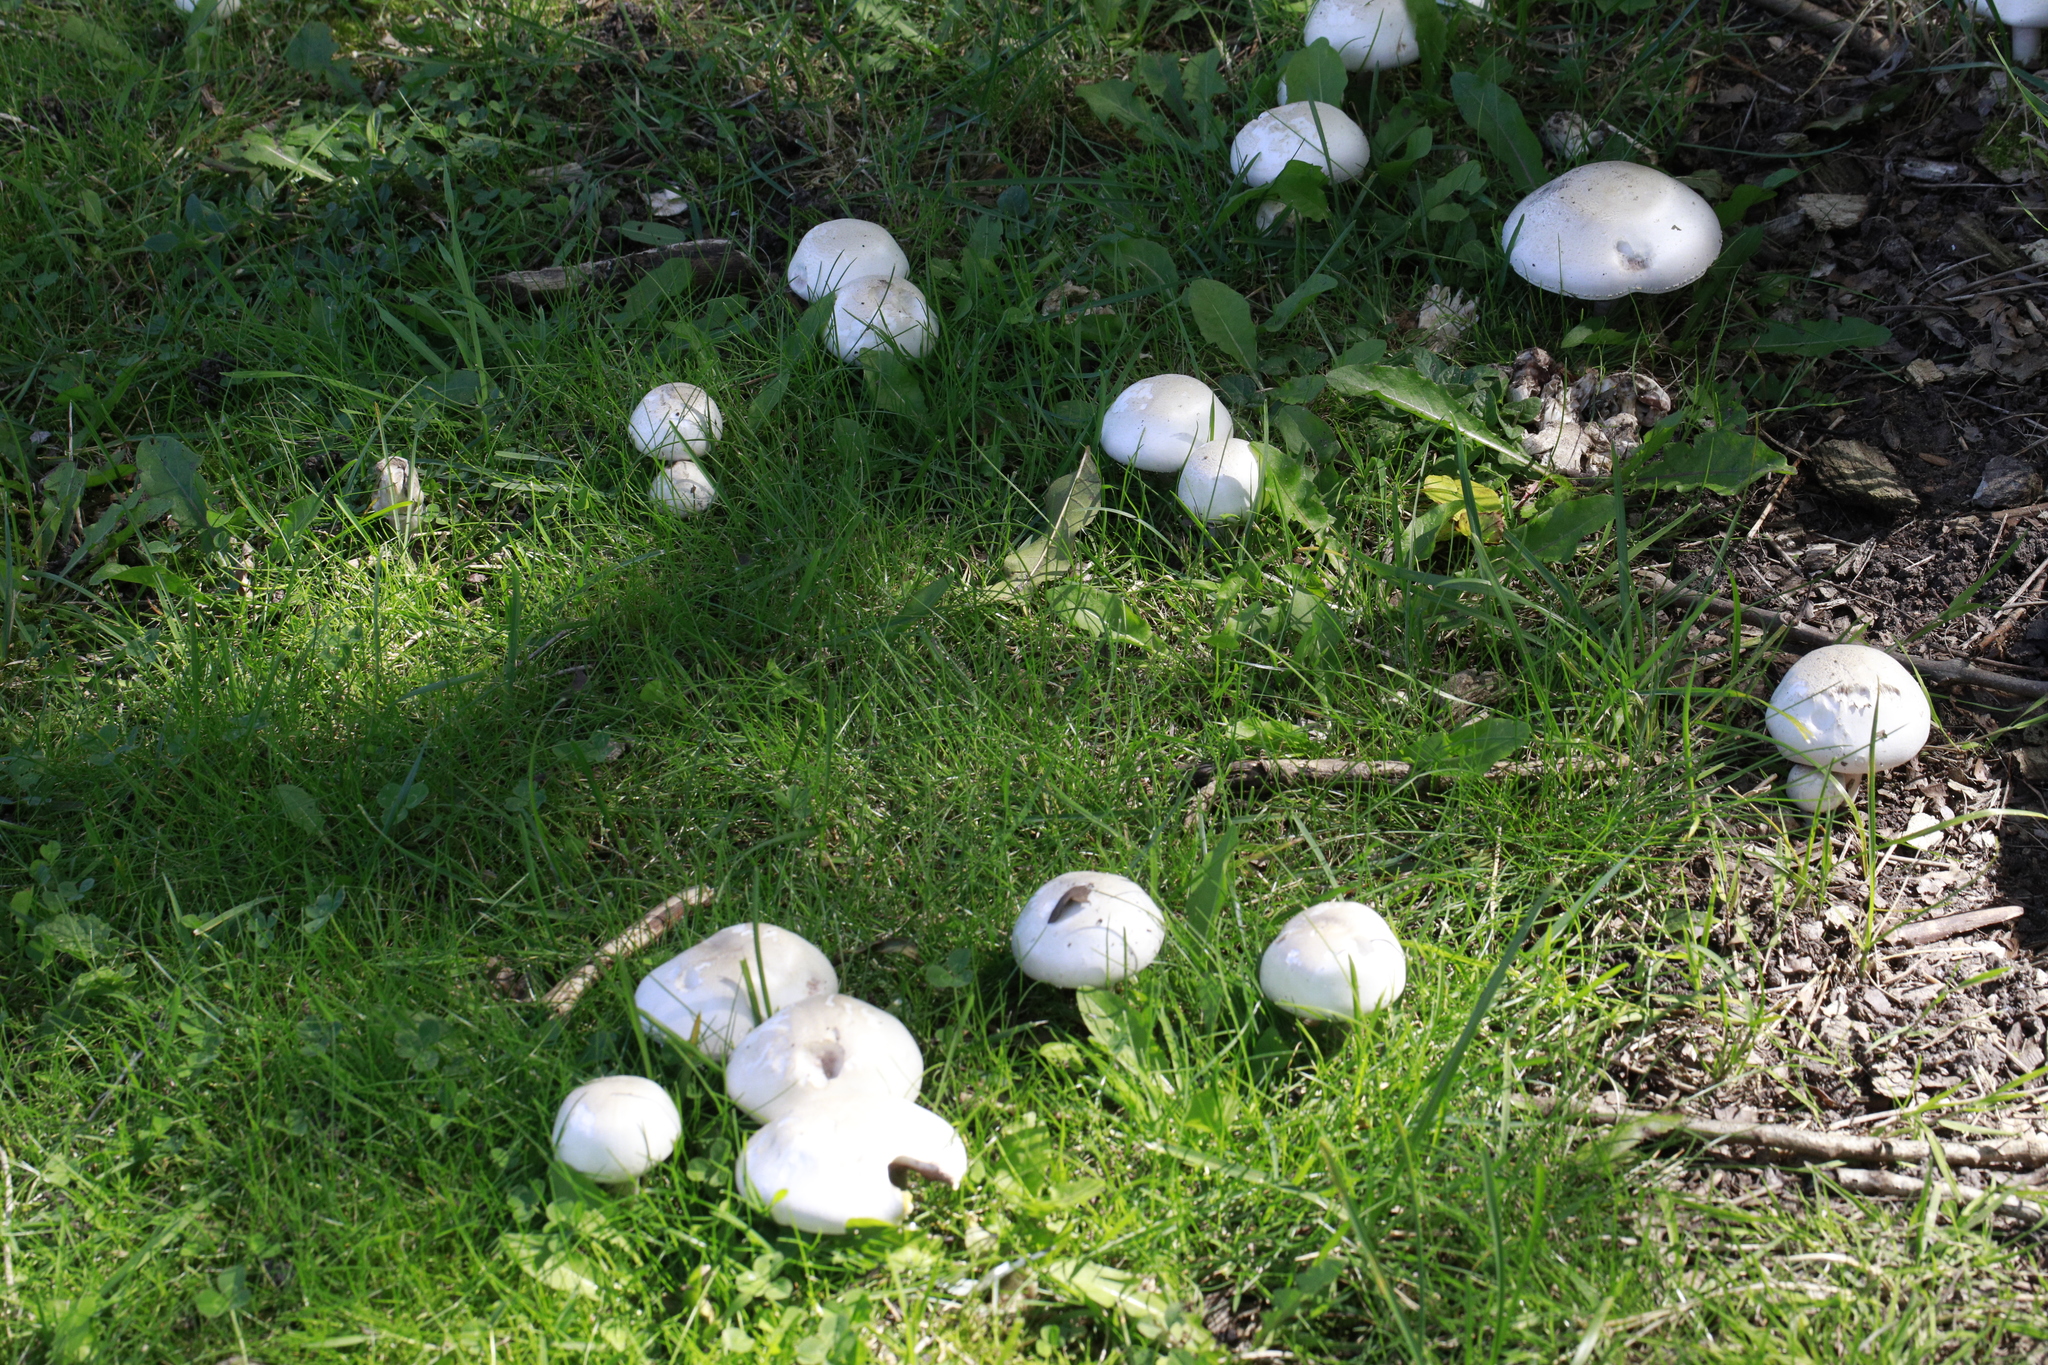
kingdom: Fungi
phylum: Basidiomycota
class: Agaricomycetes
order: Agaricales
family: Agaricaceae
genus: Agaricus
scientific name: Agaricus campestris
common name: Field mushroom
